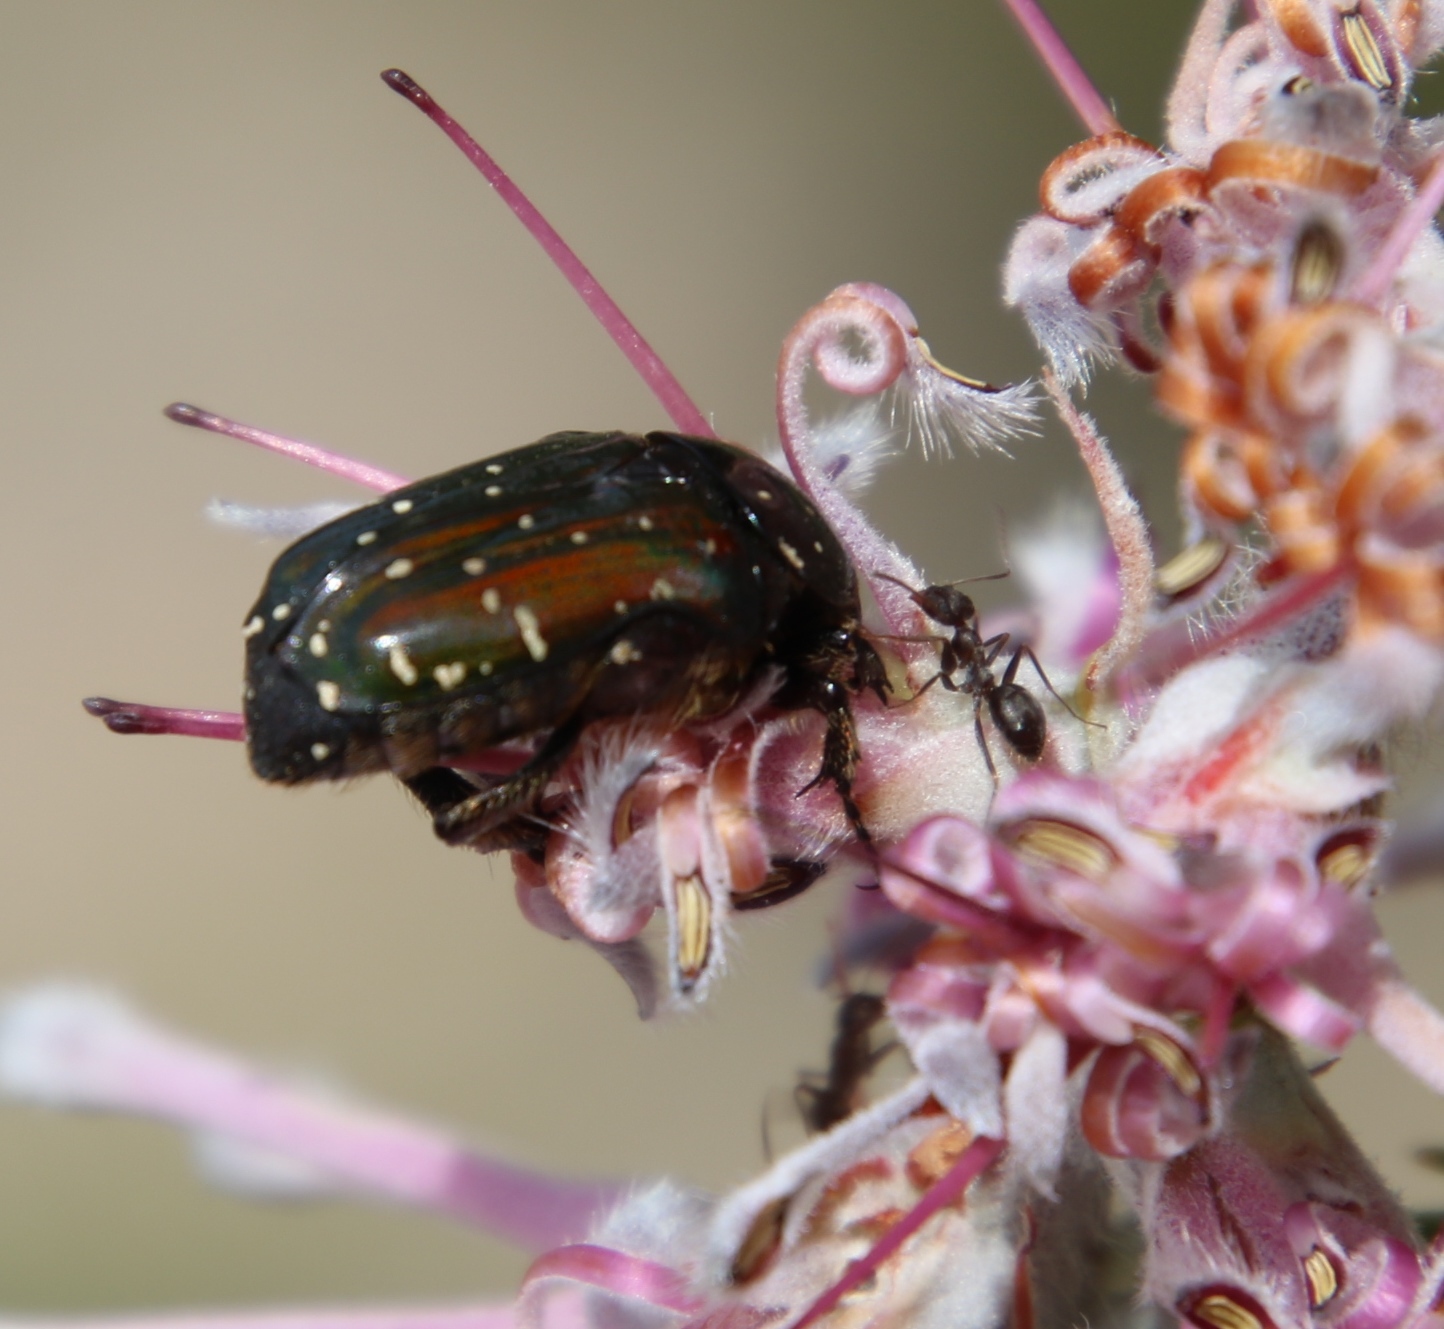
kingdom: Animalia
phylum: Arthropoda
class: Insecta
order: Coleoptera
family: Scarabaeidae
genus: Leucocelis
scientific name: Leucocelis adspersa
